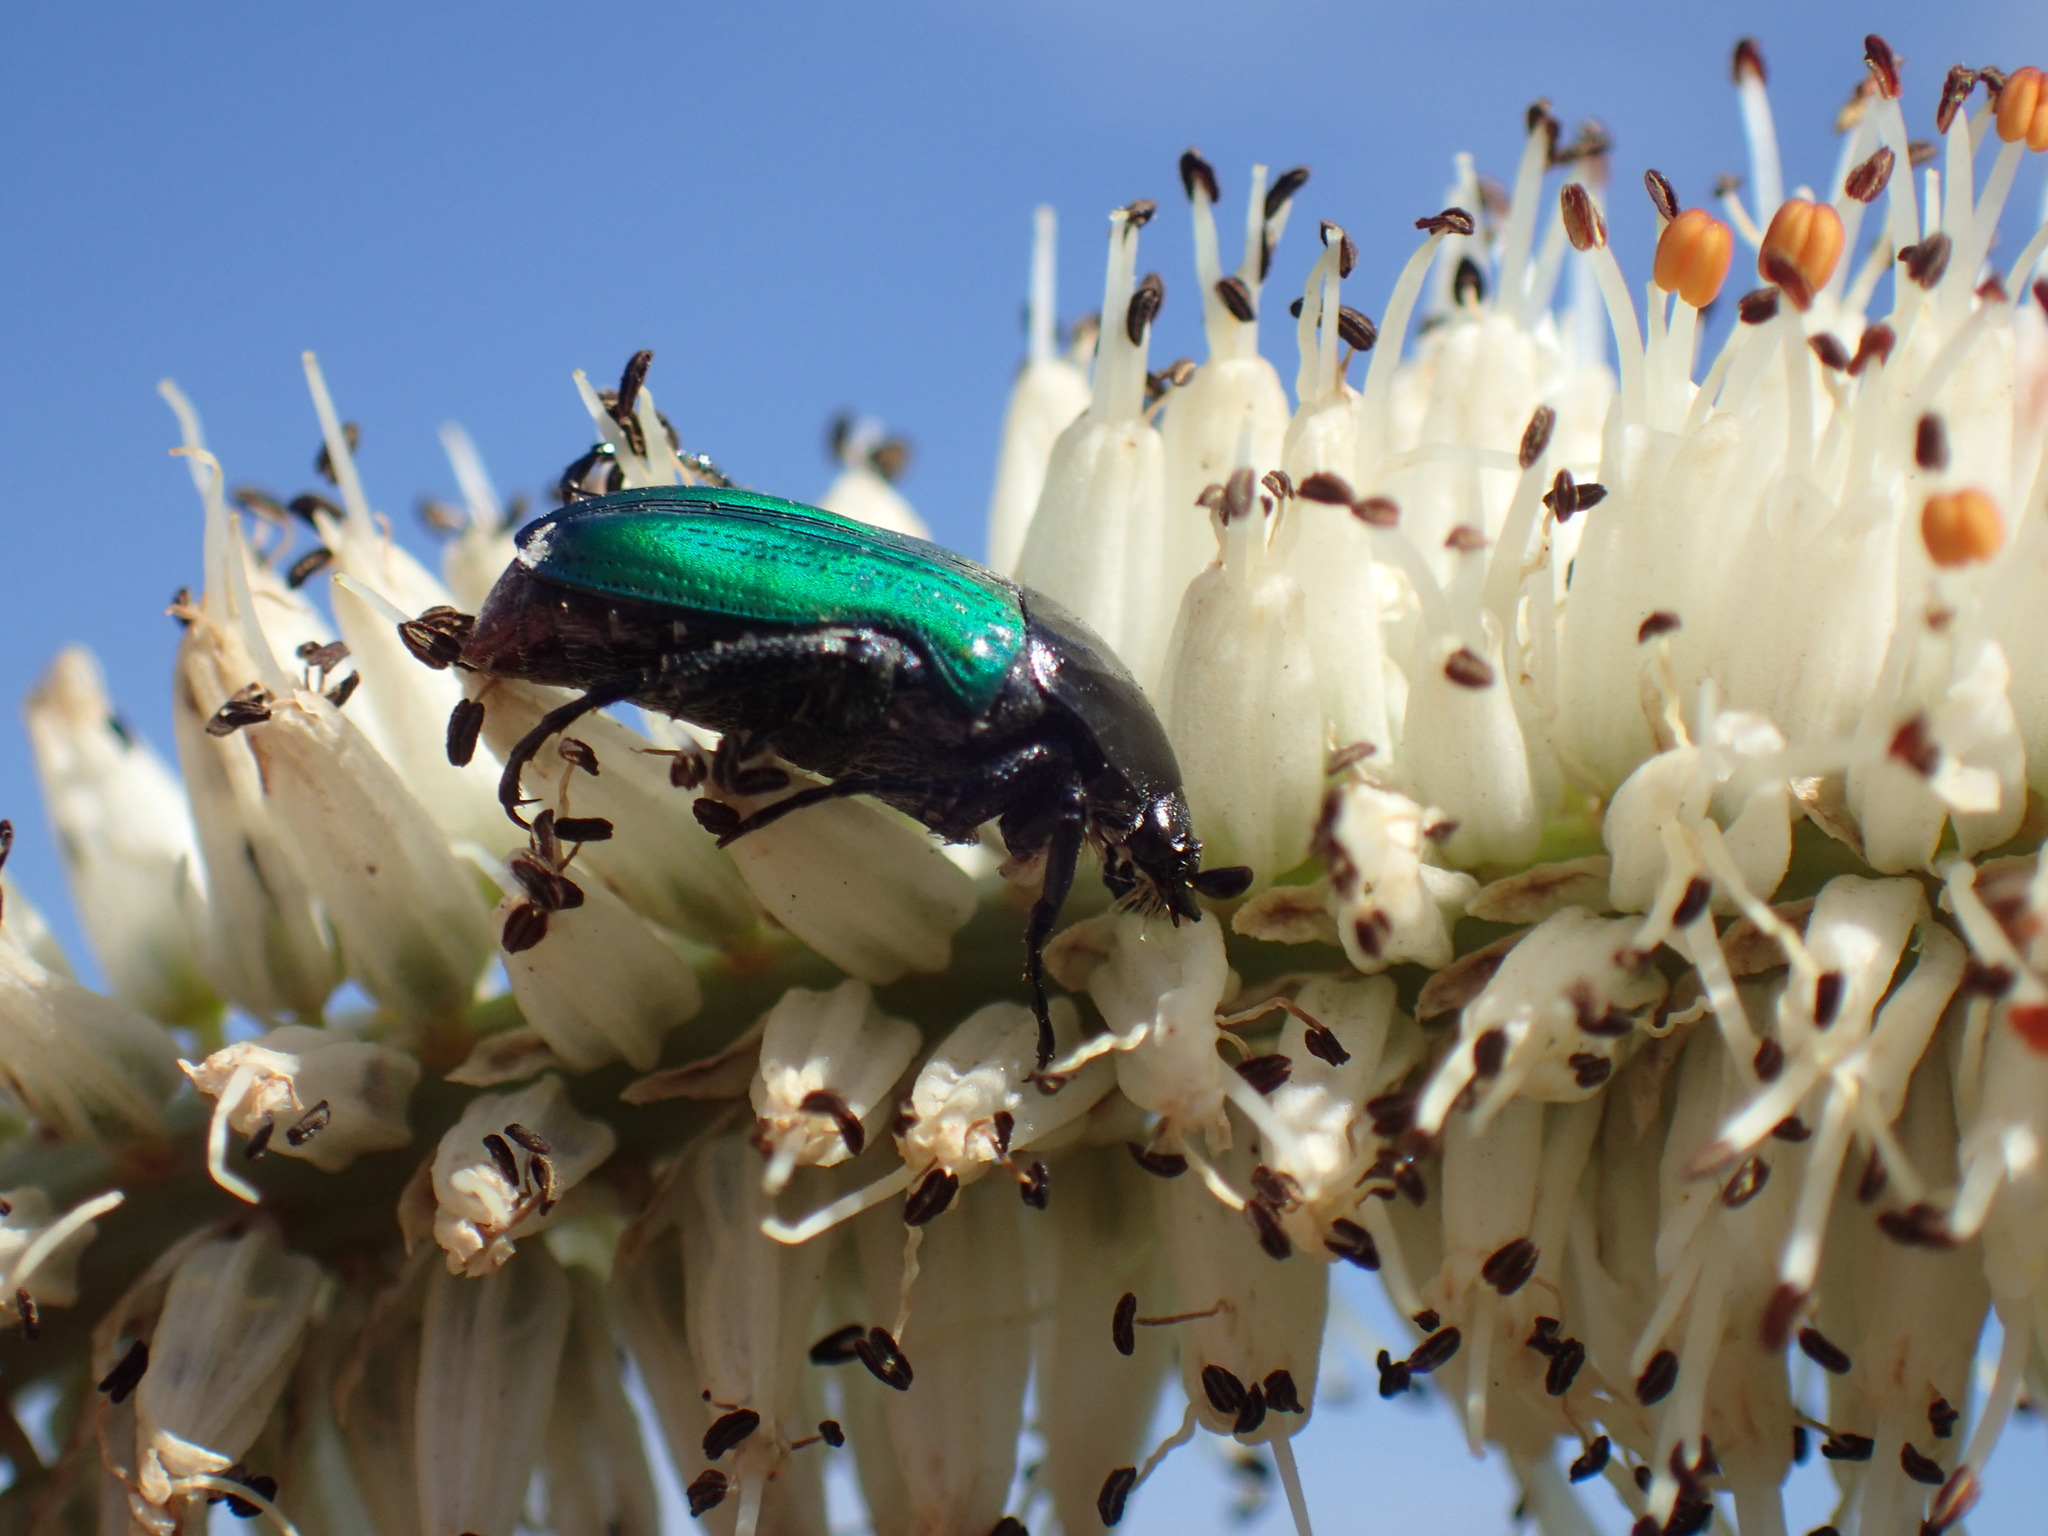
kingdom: Animalia
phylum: Arthropoda
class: Insecta
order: Coleoptera
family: Scarabaeidae
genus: Leucocelis
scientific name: Leucocelis haemorrhoidalis
